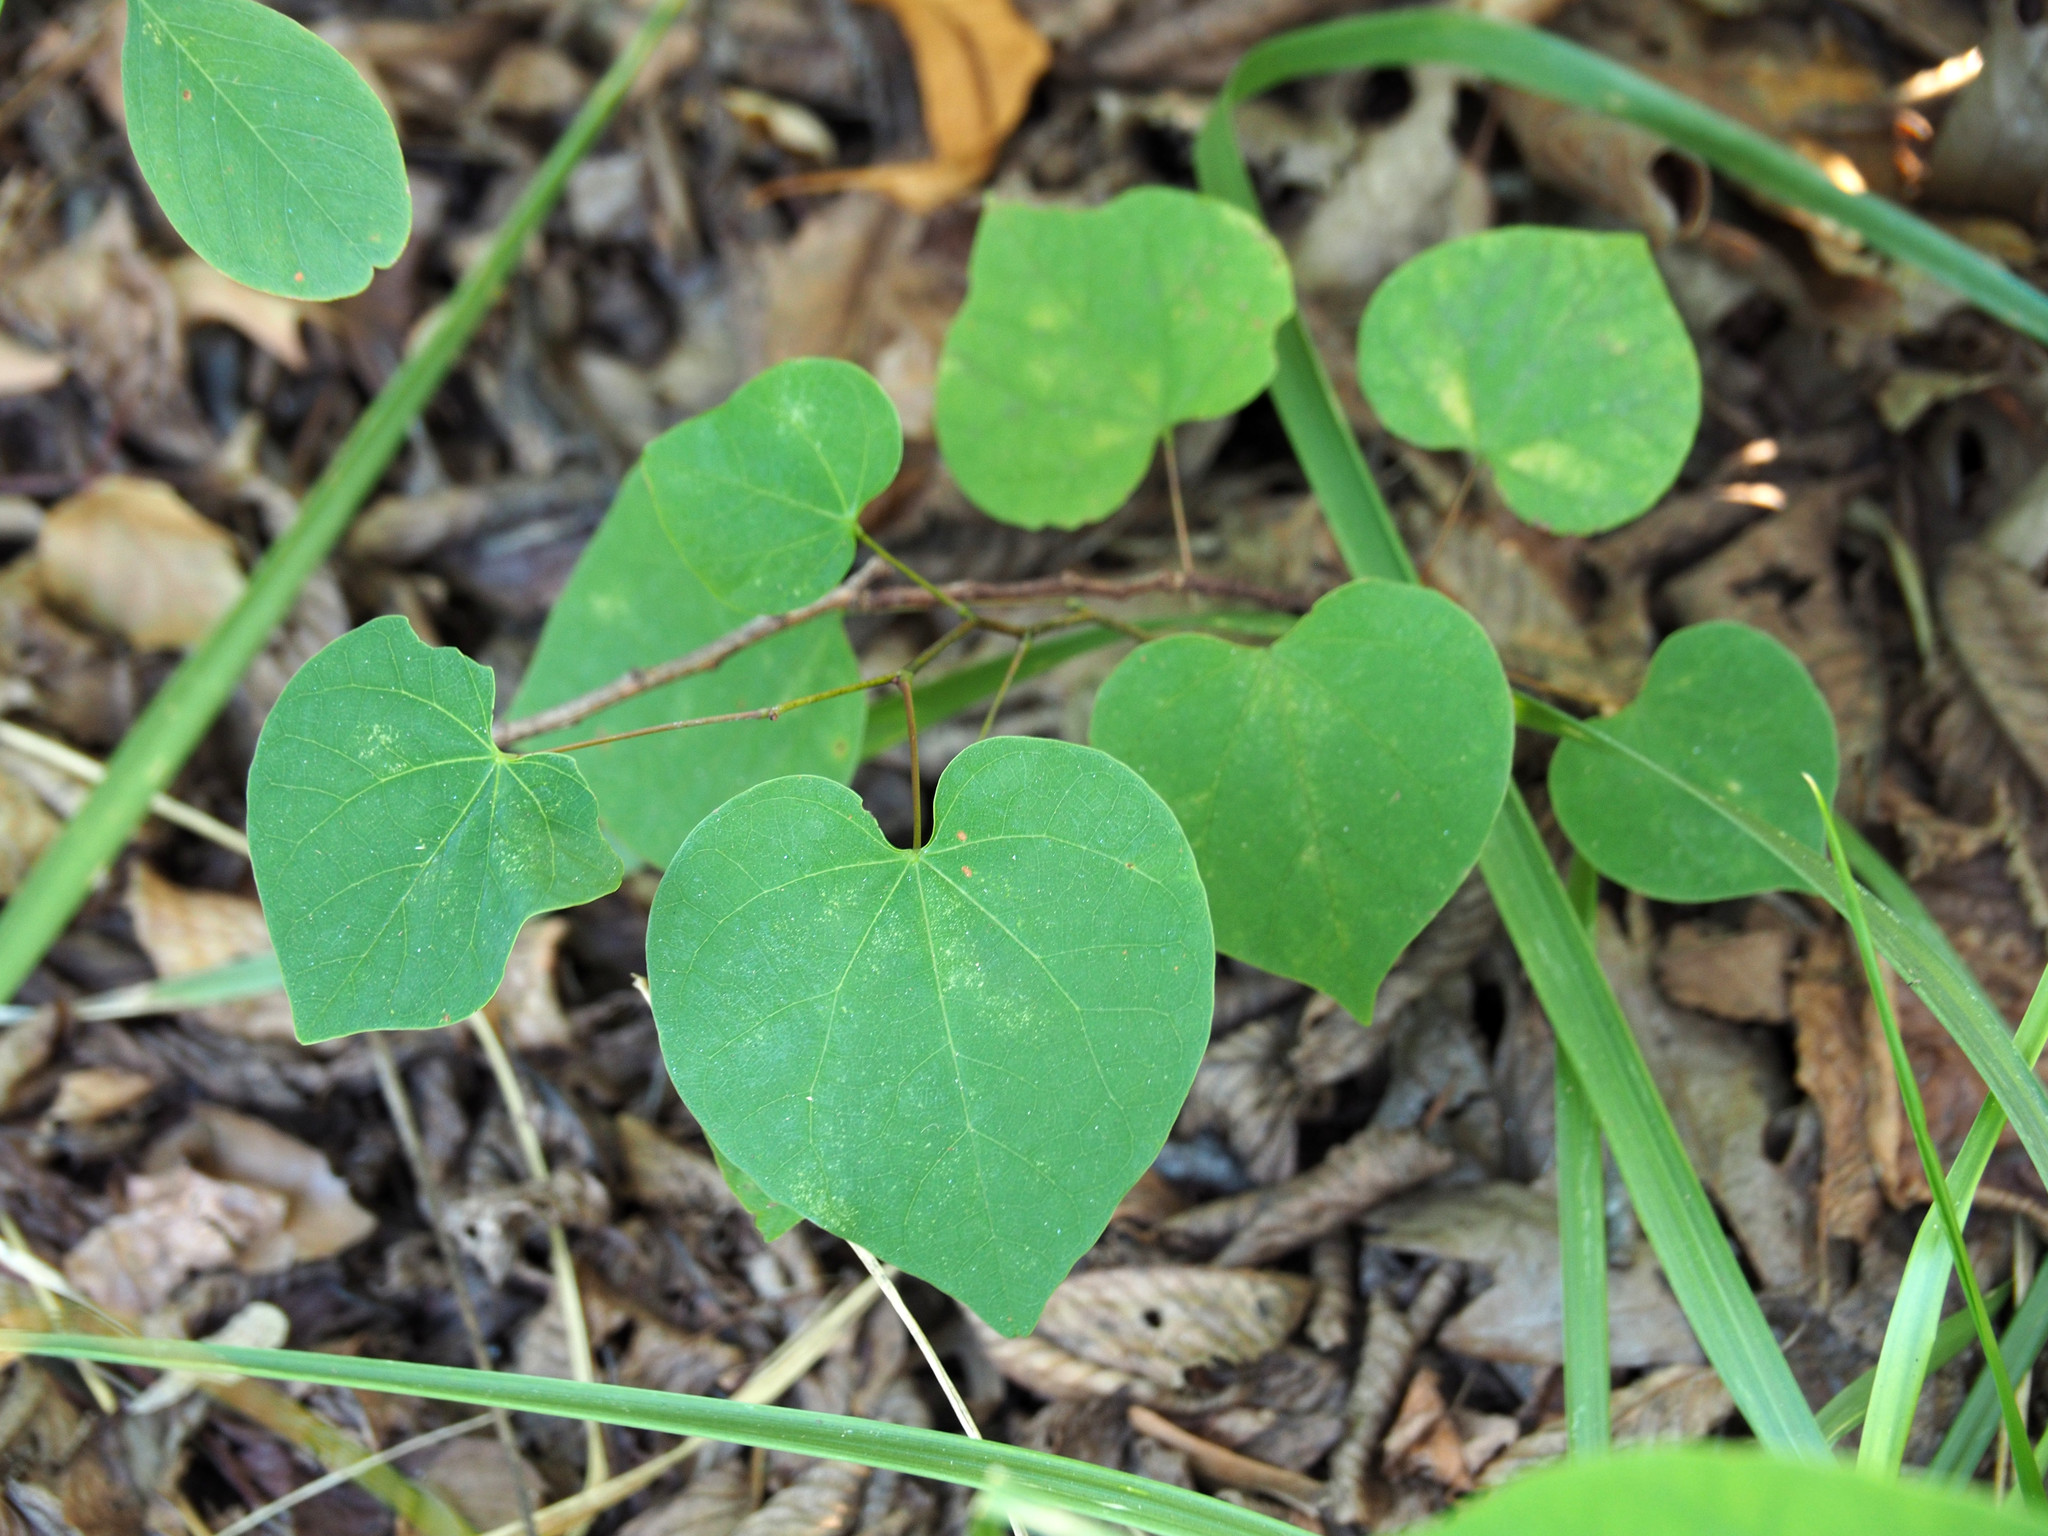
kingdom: Plantae
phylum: Tracheophyta
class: Magnoliopsida
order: Fabales
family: Fabaceae
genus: Cercis
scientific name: Cercis canadensis
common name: Eastern redbud
